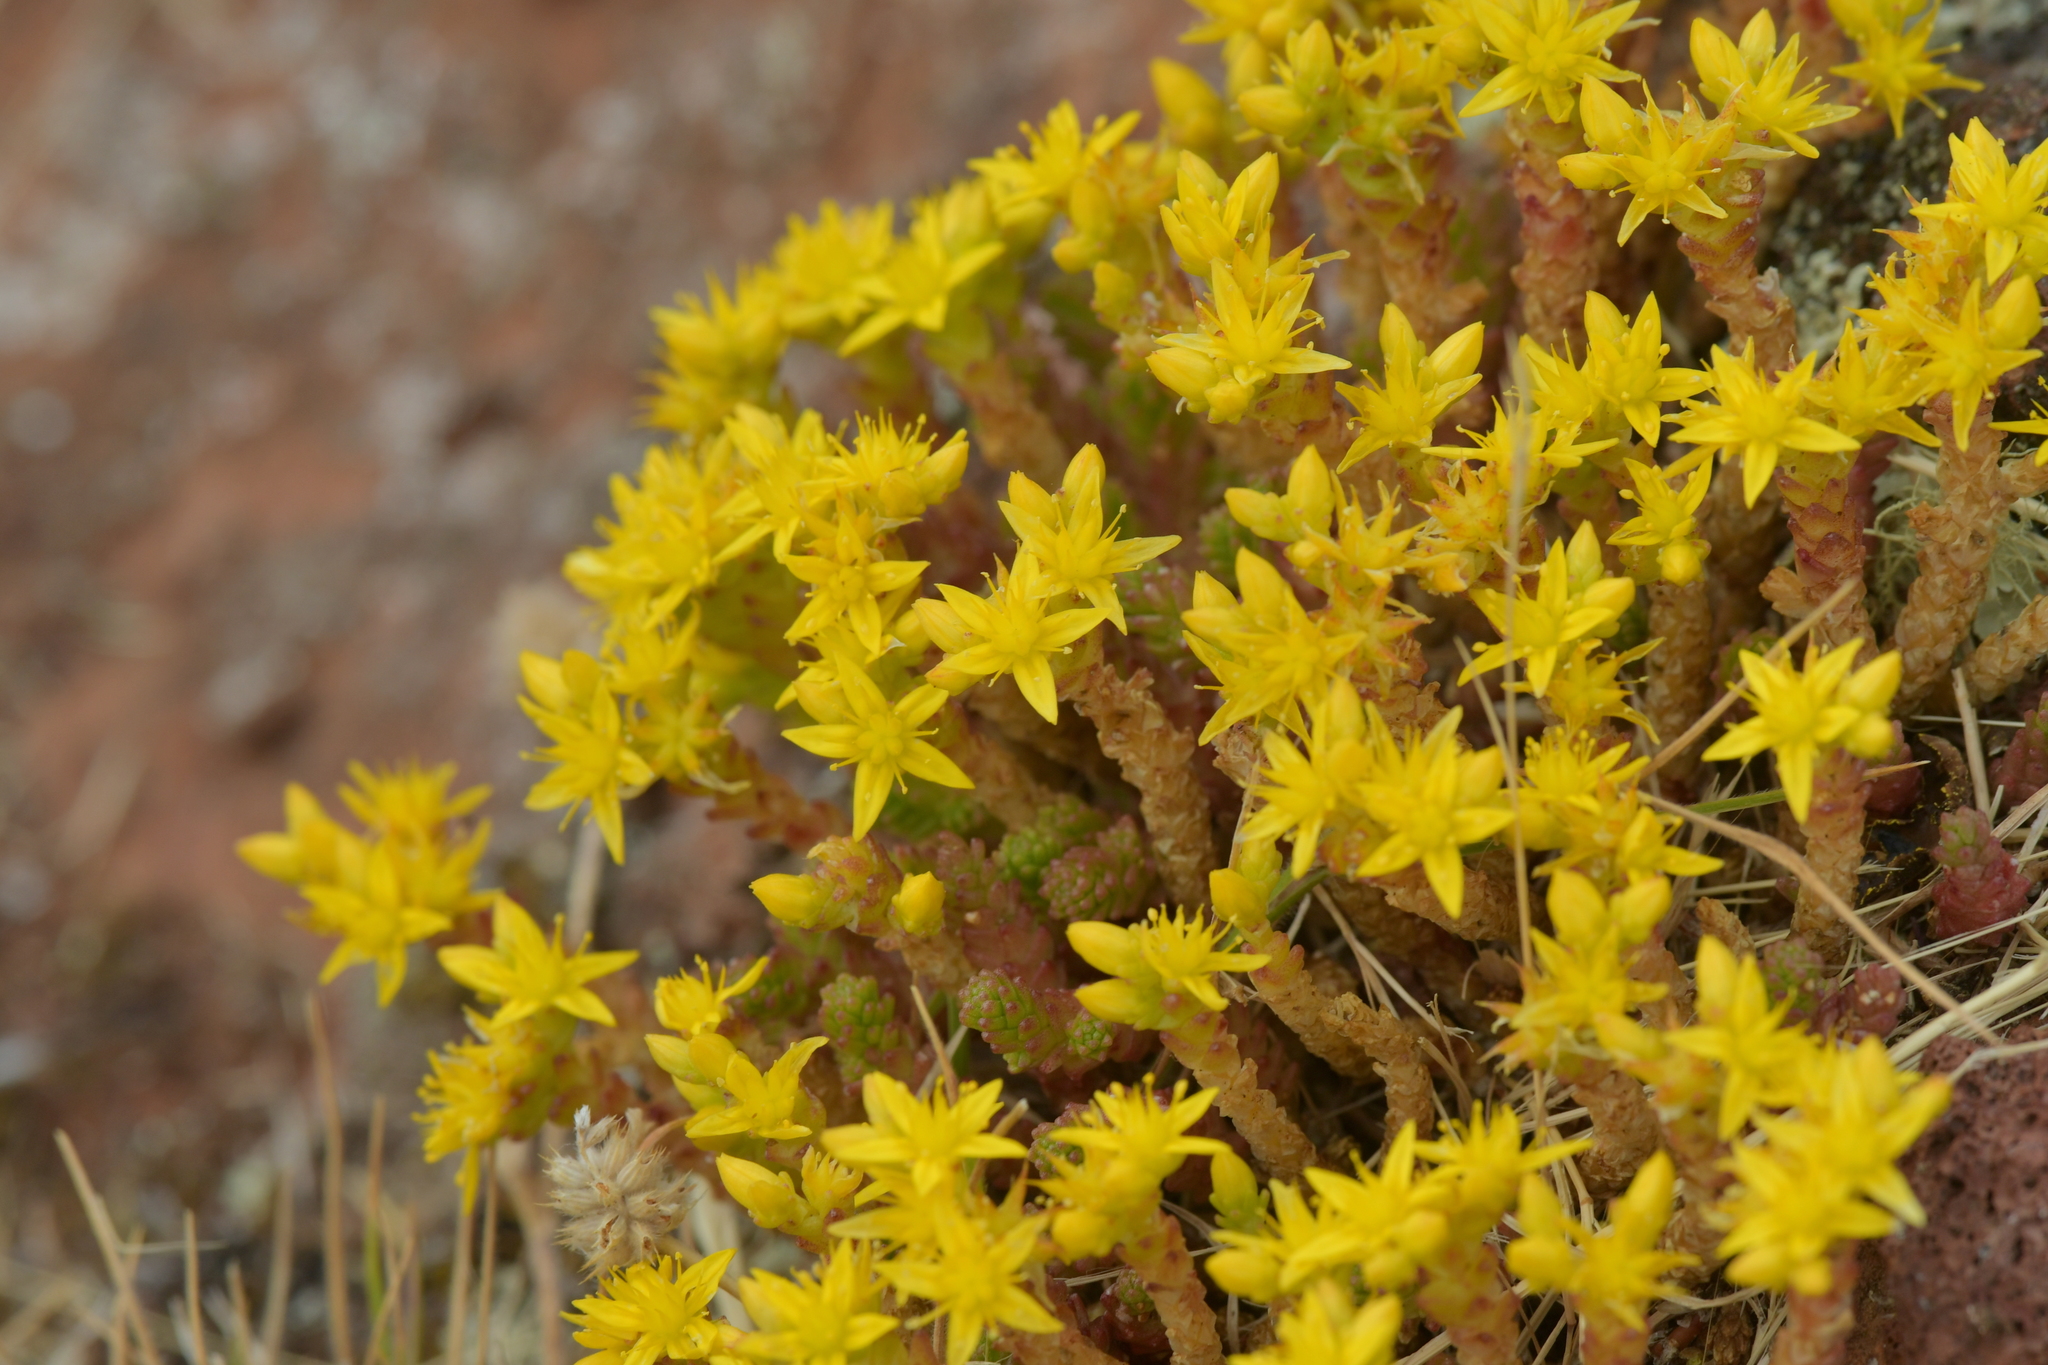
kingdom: Plantae
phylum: Tracheophyta
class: Magnoliopsida
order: Saxifragales
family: Crassulaceae
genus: Sedum
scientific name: Sedum acre
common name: Biting stonecrop
